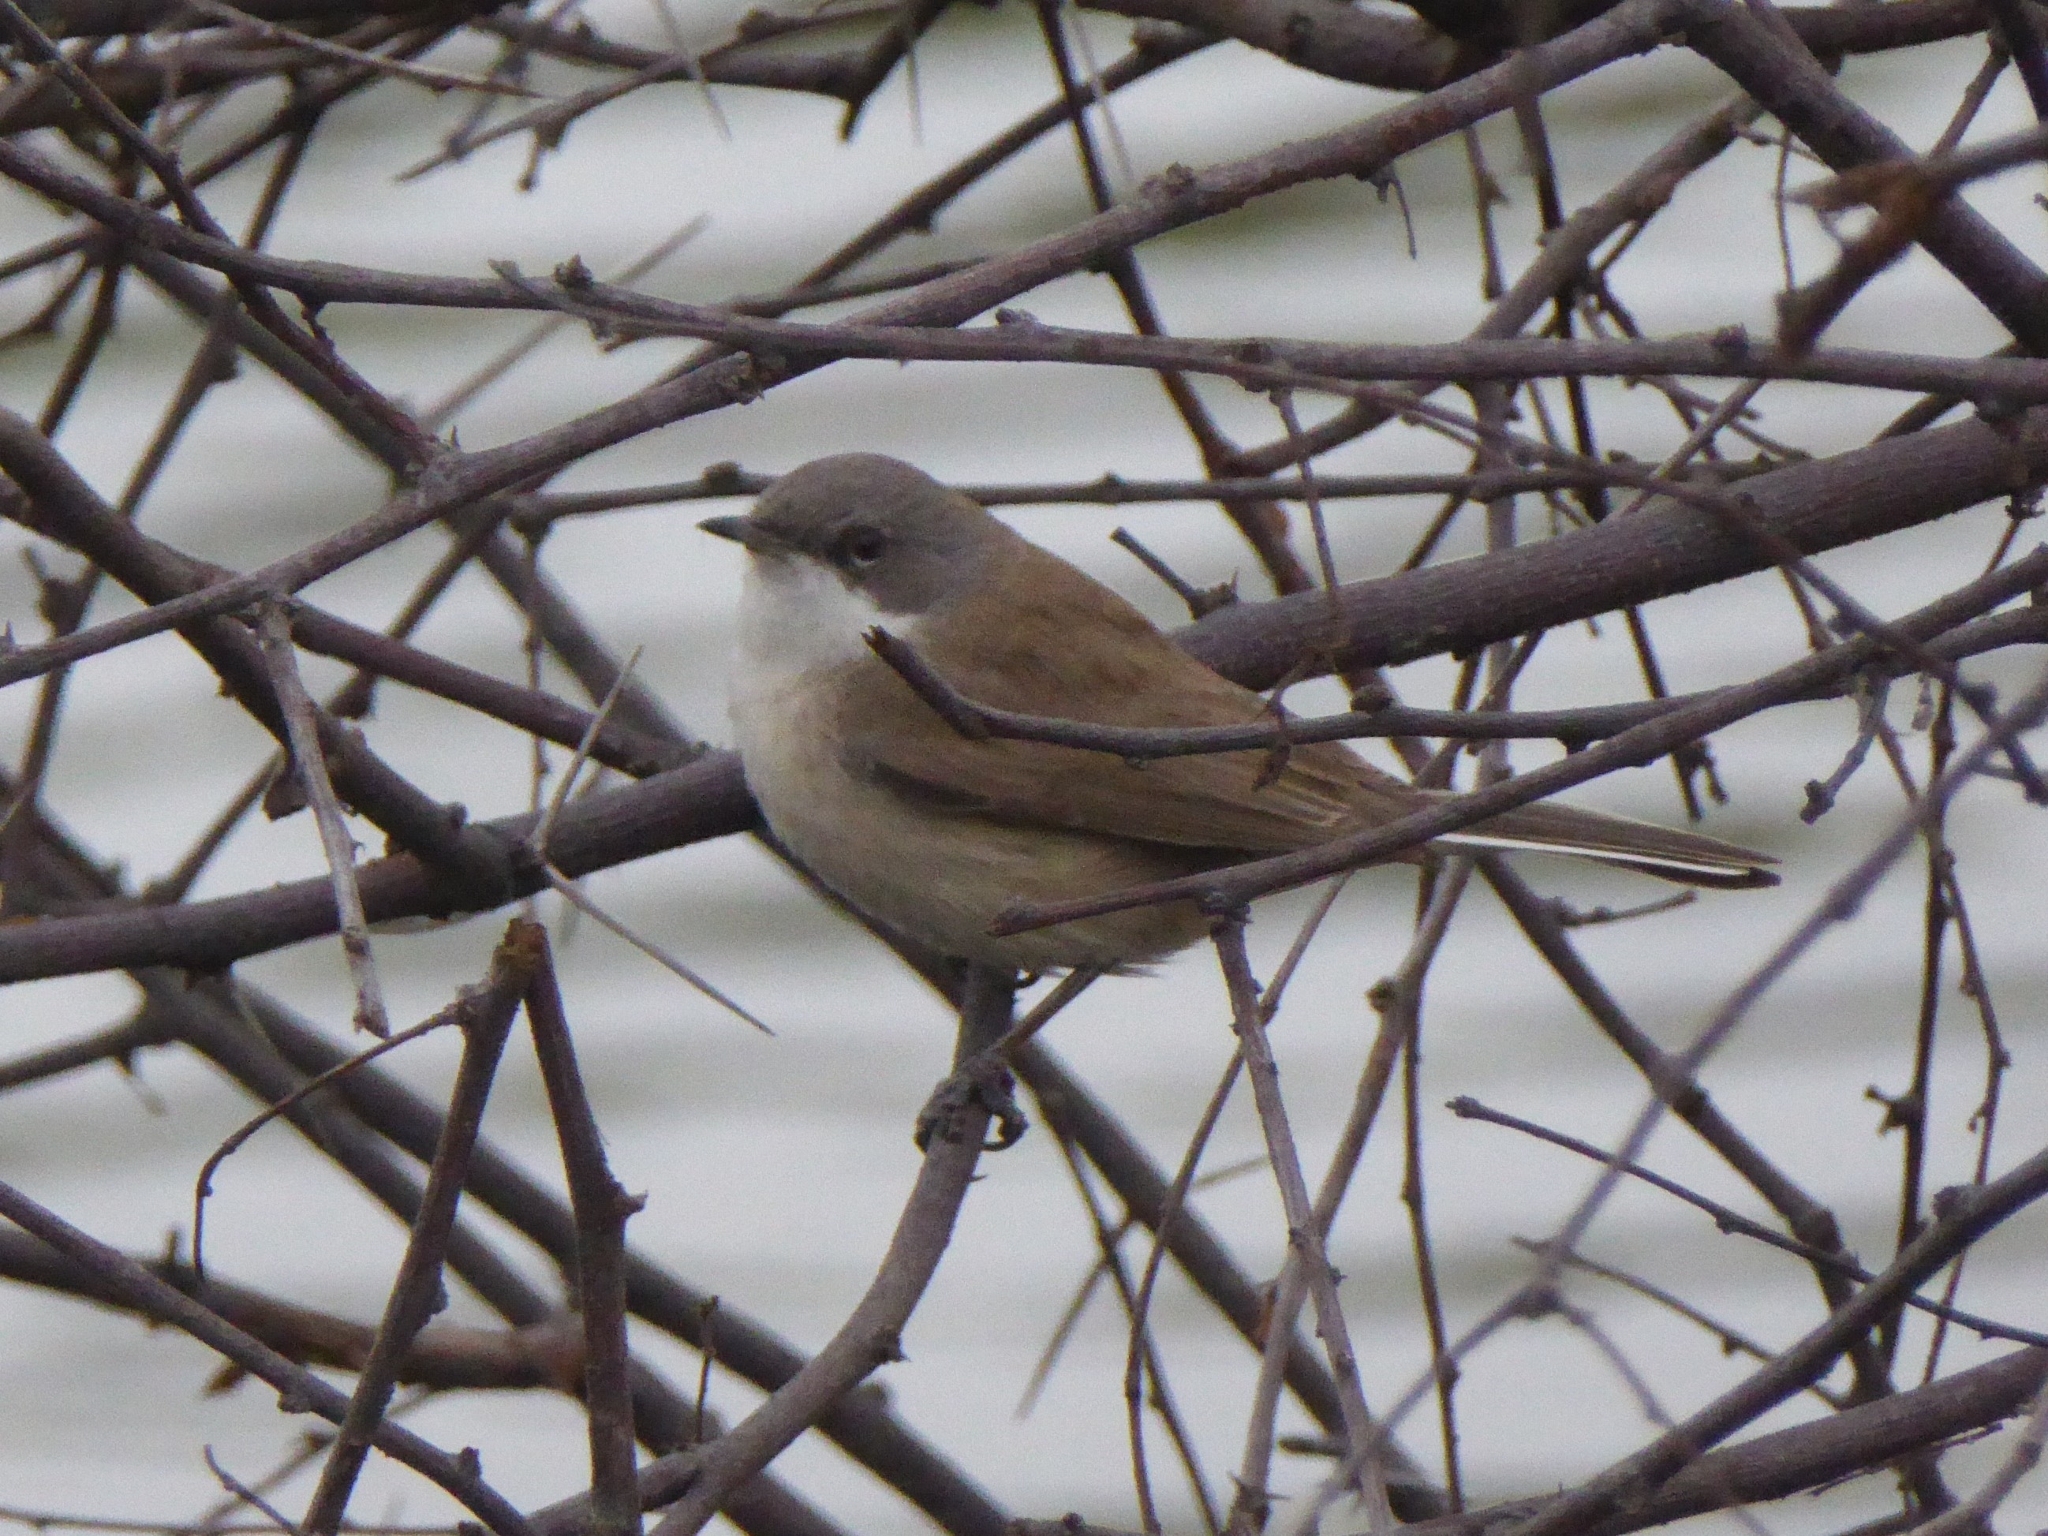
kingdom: Animalia
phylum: Chordata
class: Aves
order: Passeriformes
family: Sylviidae
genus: Sylvia
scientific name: Sylvia curruca
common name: Lesser whitethroat
